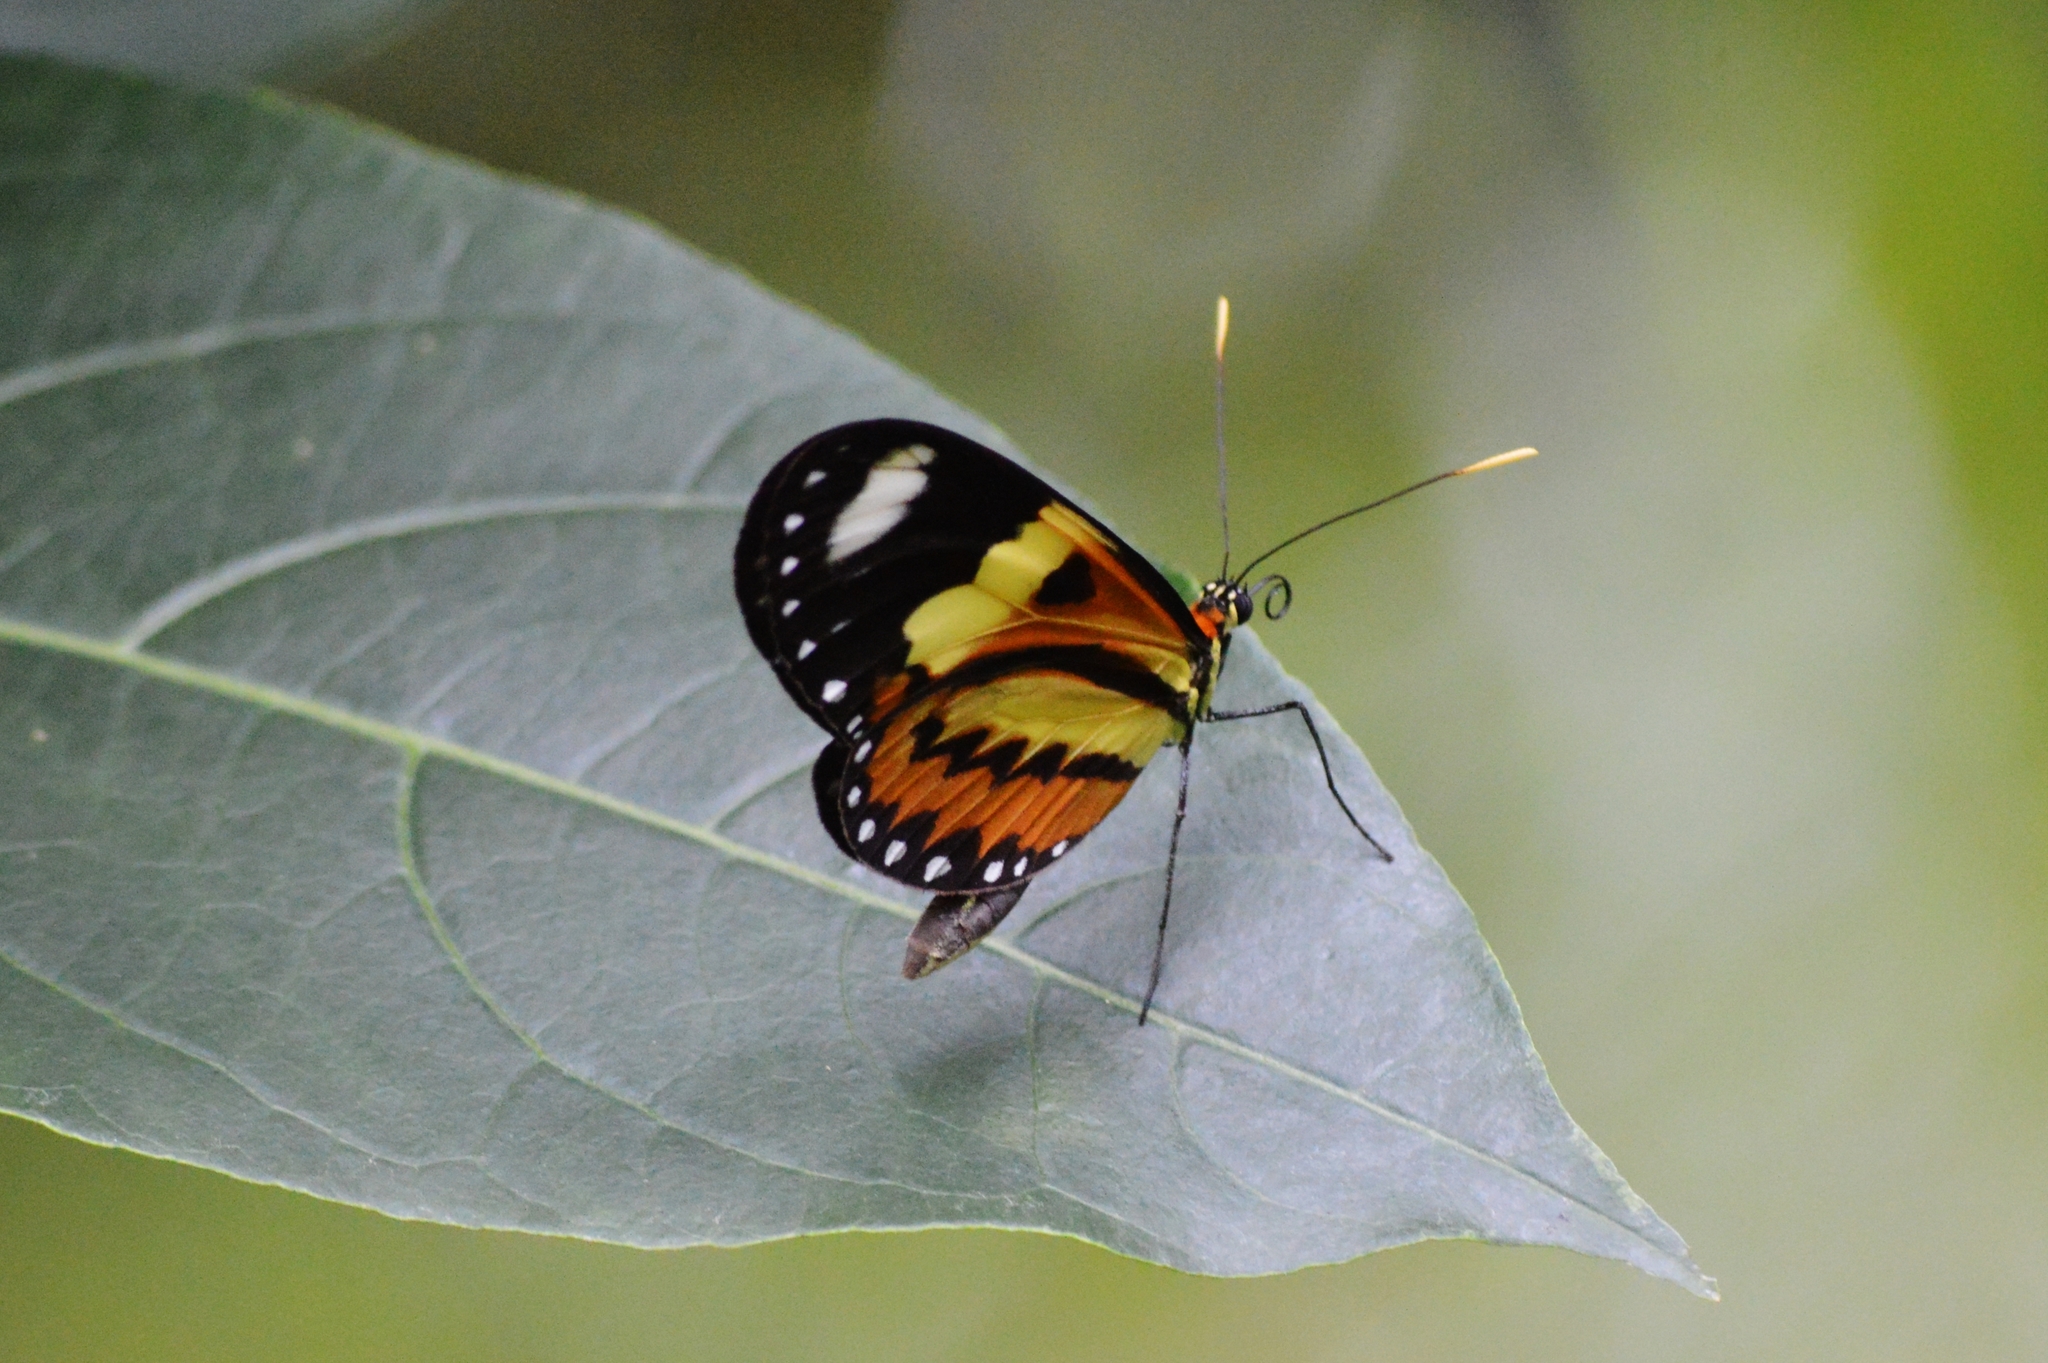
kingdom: Animalia
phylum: Arthropoda
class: Insecta
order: Lepidoptera
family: Nymphalidae
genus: Mechanitis
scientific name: Mechanitis lysimnia
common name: Lysimnia tigerwing
